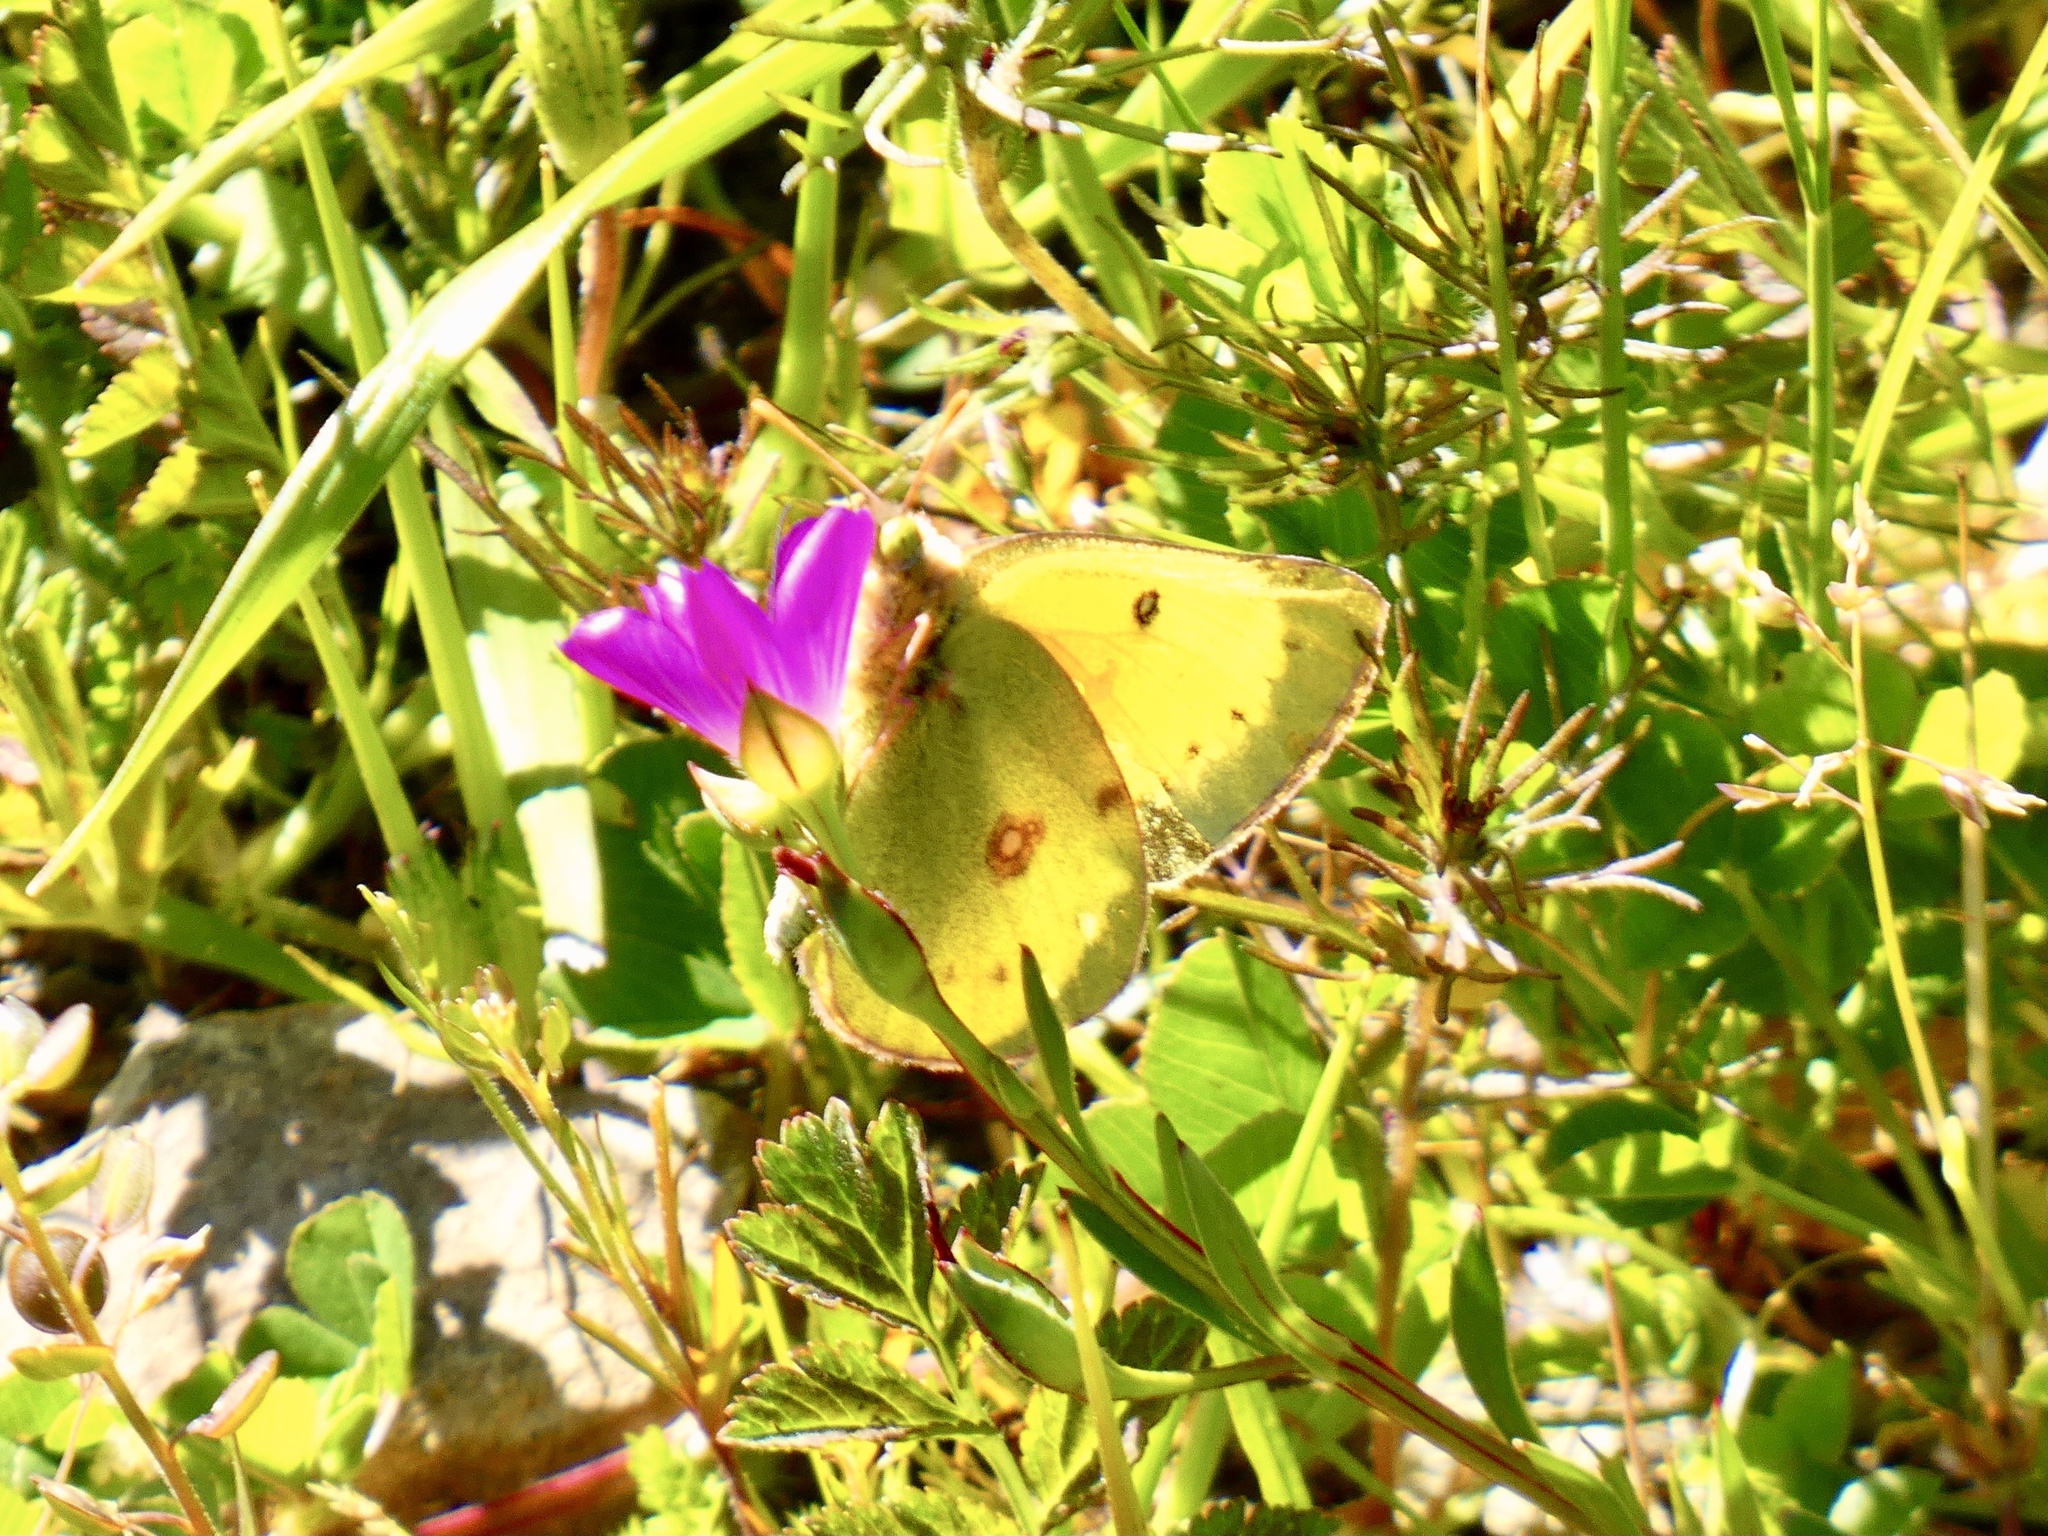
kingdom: Animalia
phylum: Arthropoda
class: Insecta
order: Lepidoptera
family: Pieridae
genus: Colias
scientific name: Colias eurytheme
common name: Alfalfa butterfly
